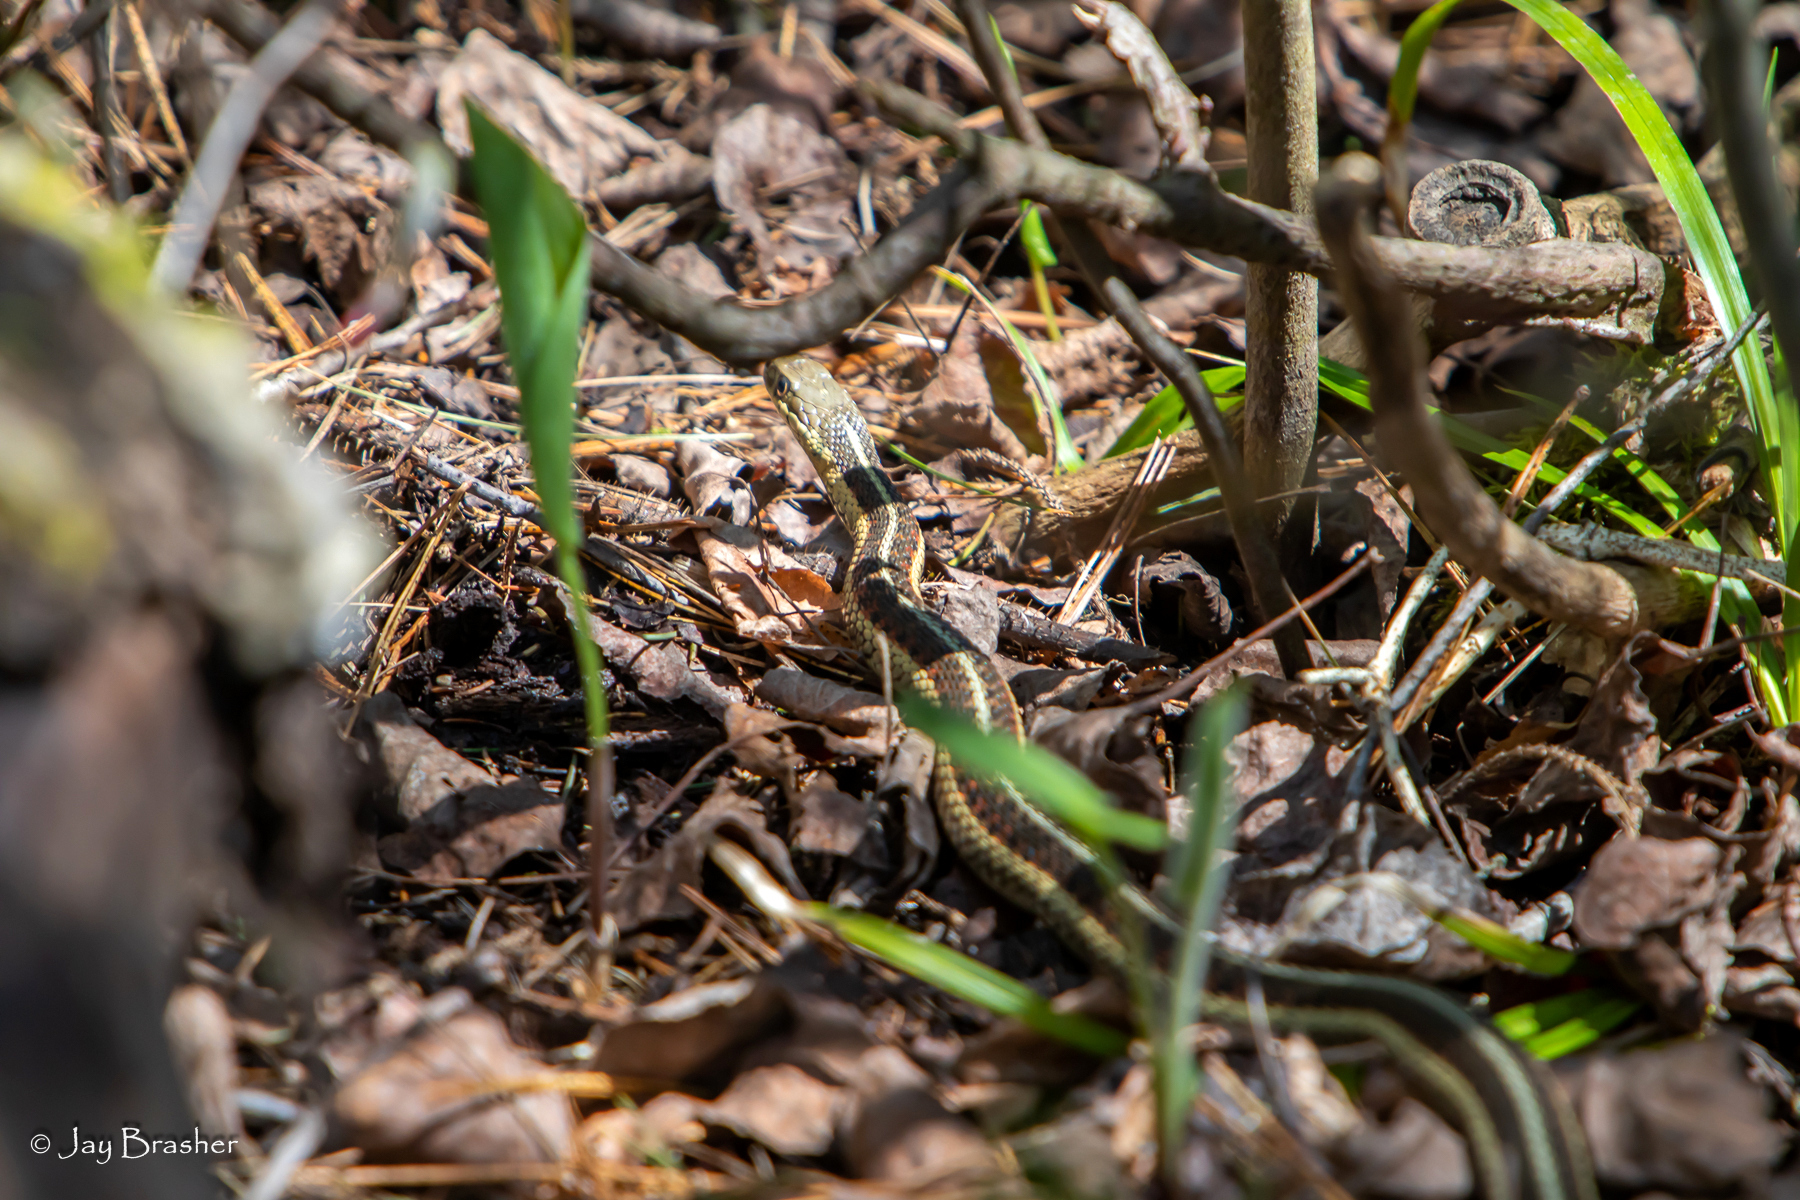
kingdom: Animalia
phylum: Chordata
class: Squamata
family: Colubridae
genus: Thamnophis
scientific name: Thamnophis sirtalis
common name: Common garter snake
